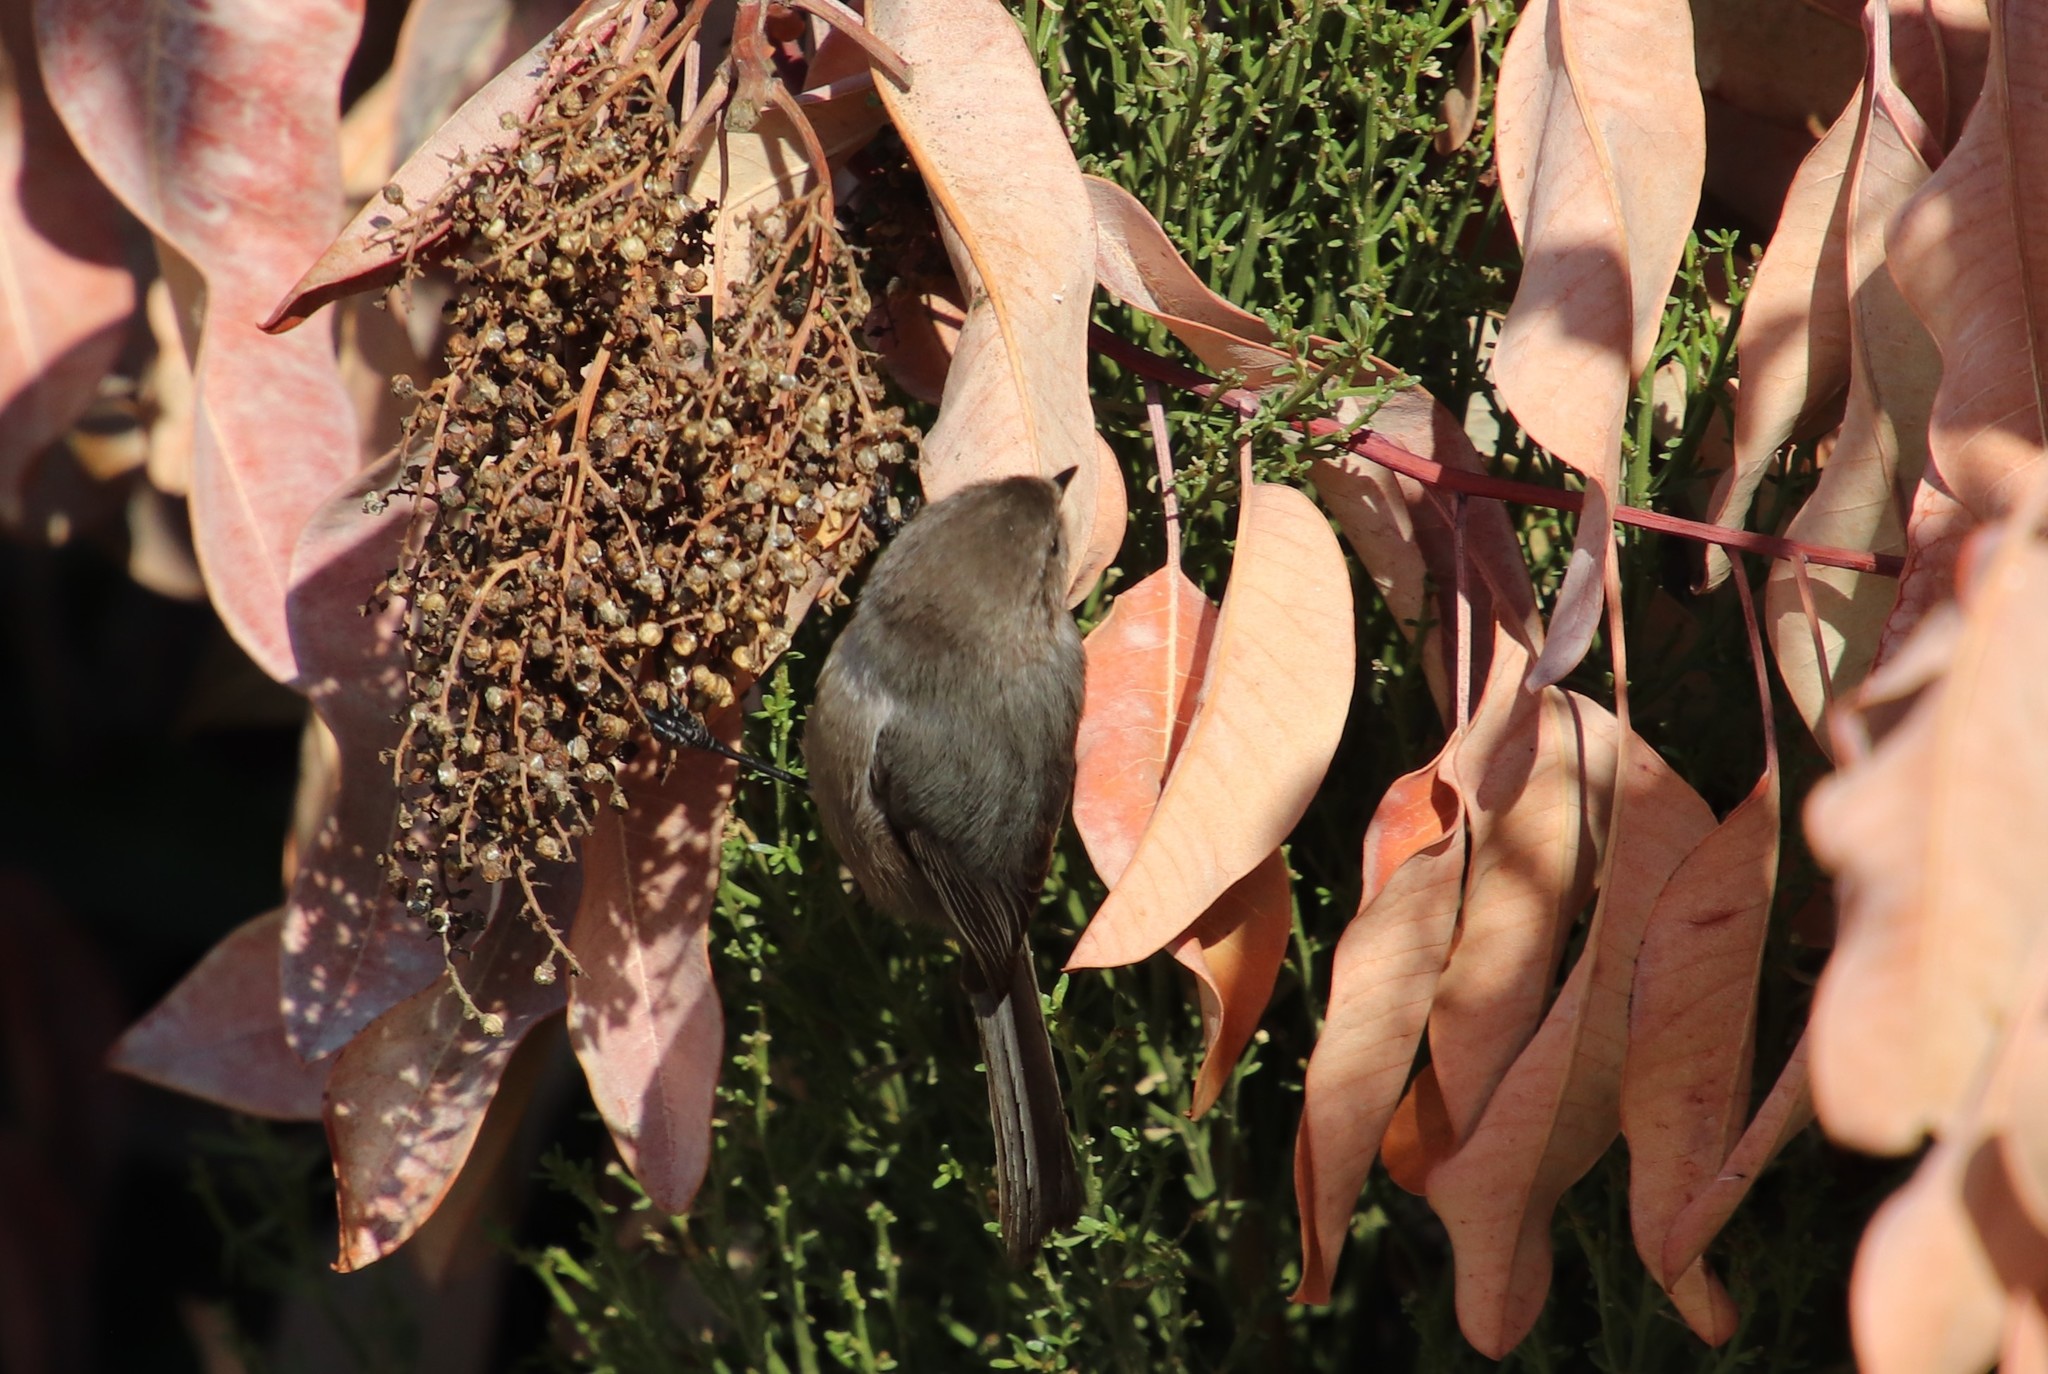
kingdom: Animalia
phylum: Chordata
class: Aves
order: Passeriformes
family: Aegithalidae
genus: Psaltriparus
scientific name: Psaltriparus minimus
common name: American bushtit
